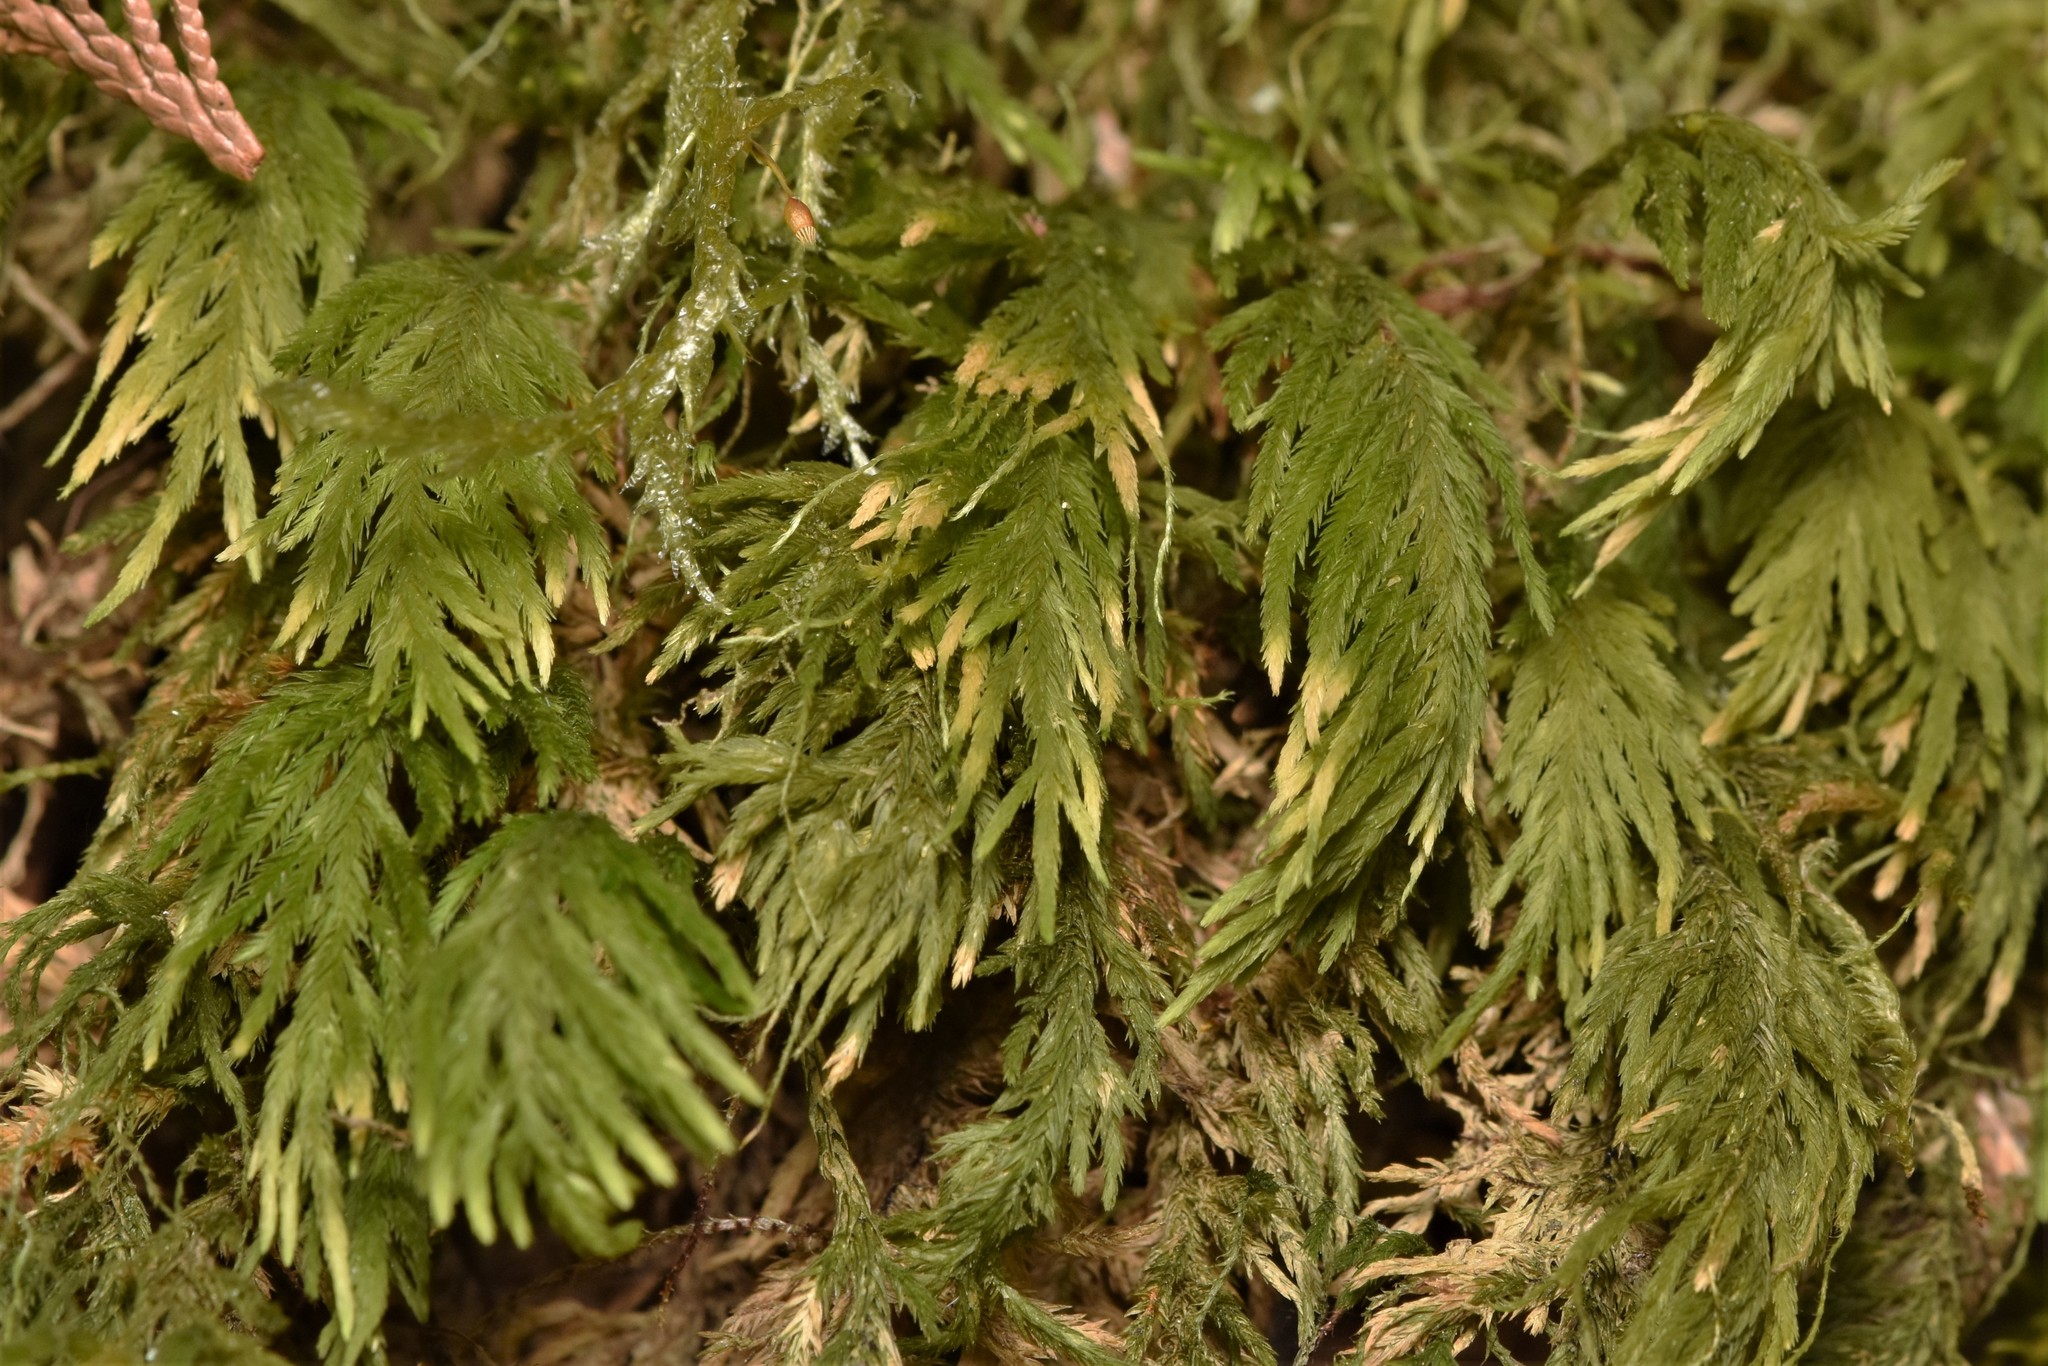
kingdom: Plantae
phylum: Bryophyta
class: Bryopsida
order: Hypnales
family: Cryphaeaceae
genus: Dendroalsia
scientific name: Dendroalsia abietina
